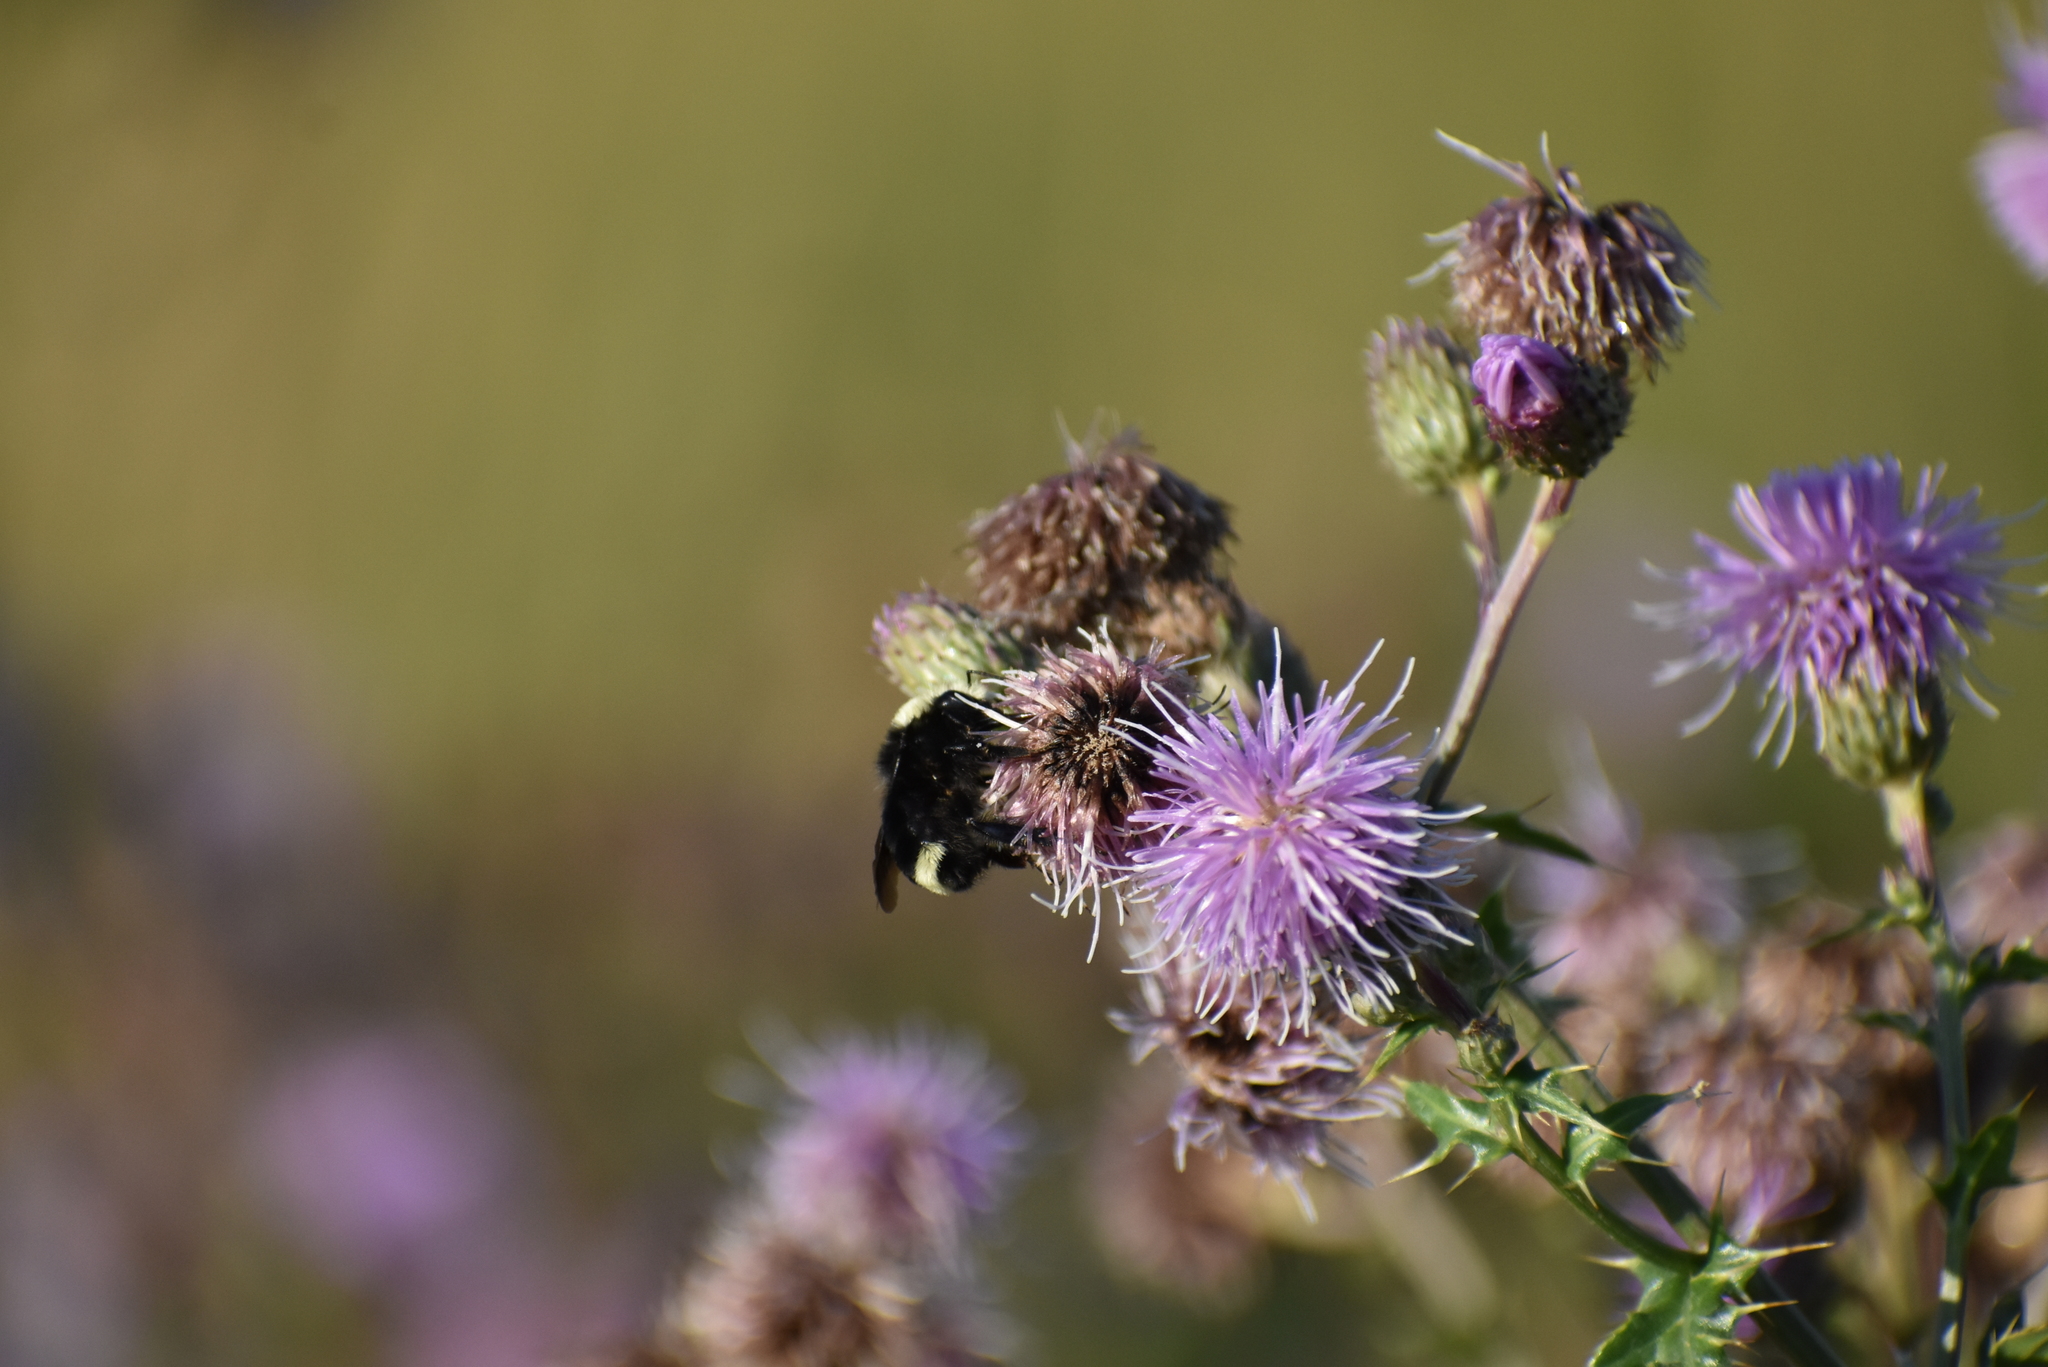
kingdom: Animalia
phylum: Arthropoda
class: Insecta
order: Hymenoptera
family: Apidae
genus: Bombus
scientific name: Bombus vosnesenskii
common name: Vosnesensky bumble bee
